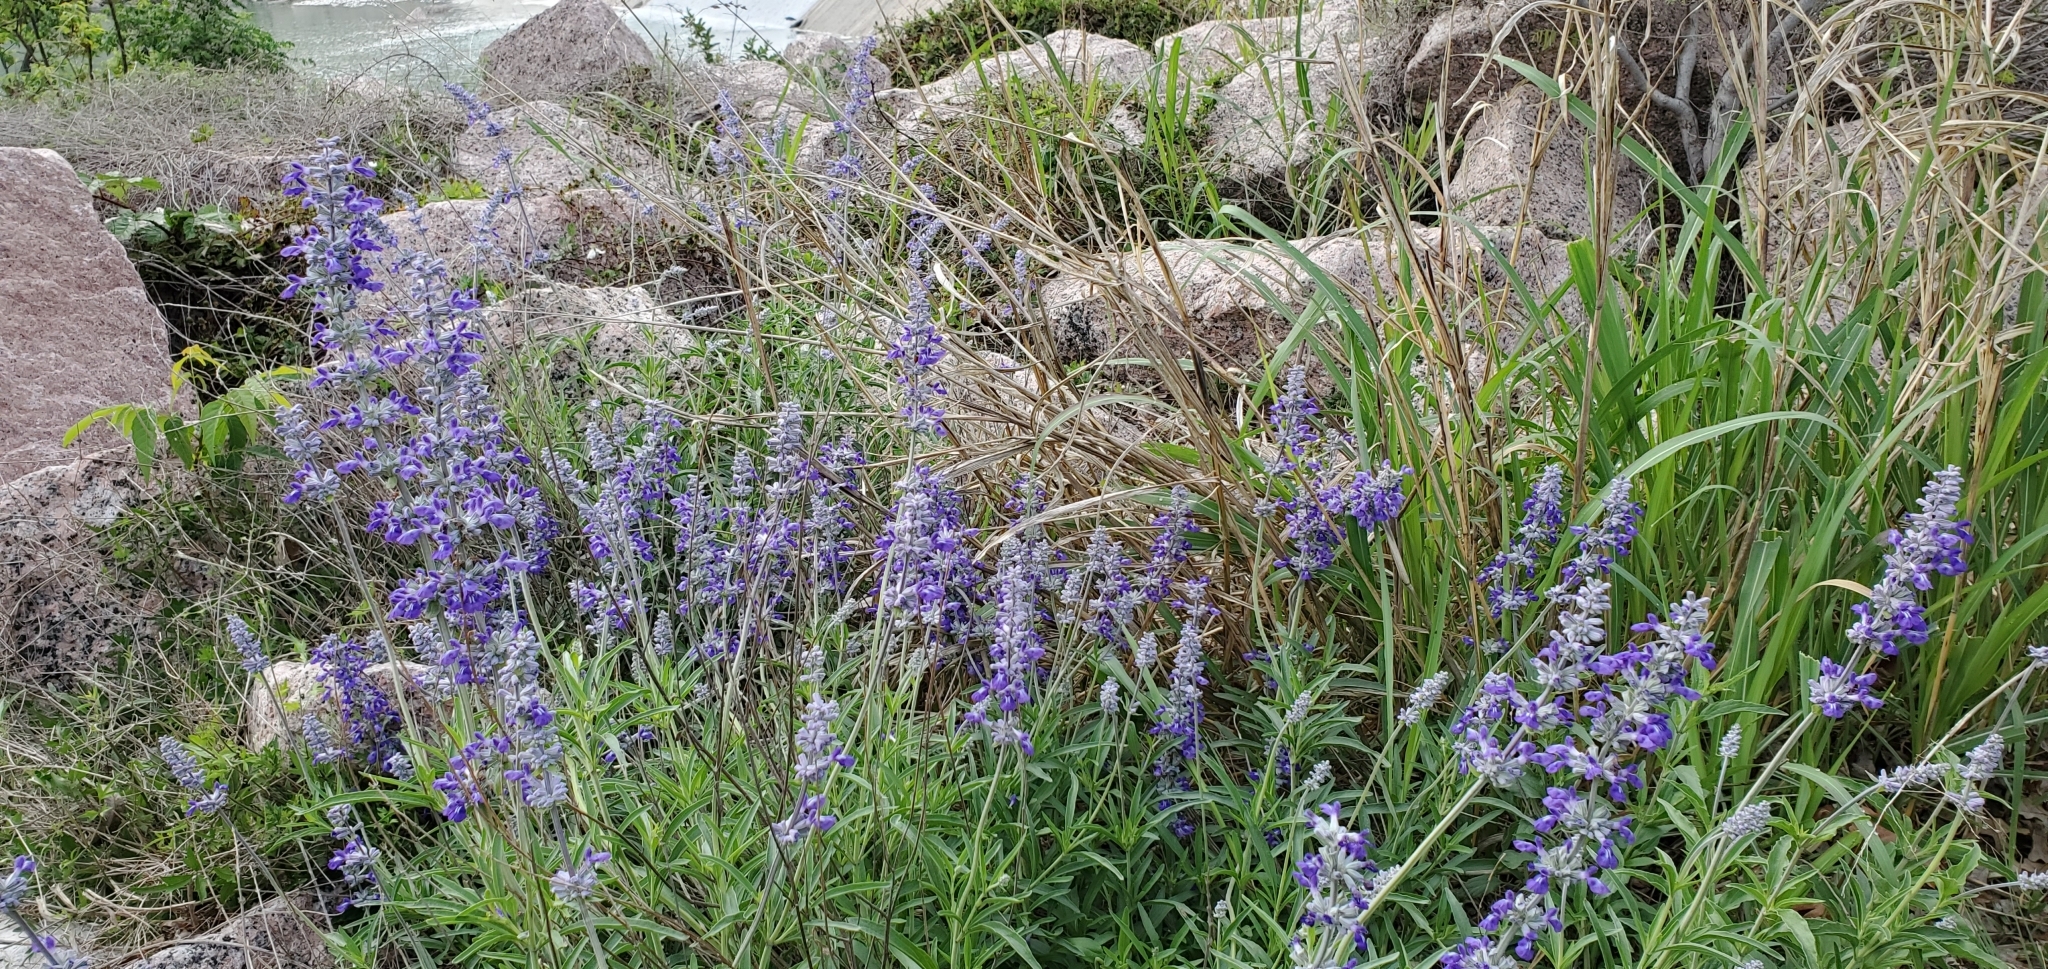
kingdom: Plantae
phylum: Tracheophyta
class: Magnoliopsida
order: Lamiales
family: Lamiaceae
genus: Salvia
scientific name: Salvia farinacea
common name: Mealy sage
